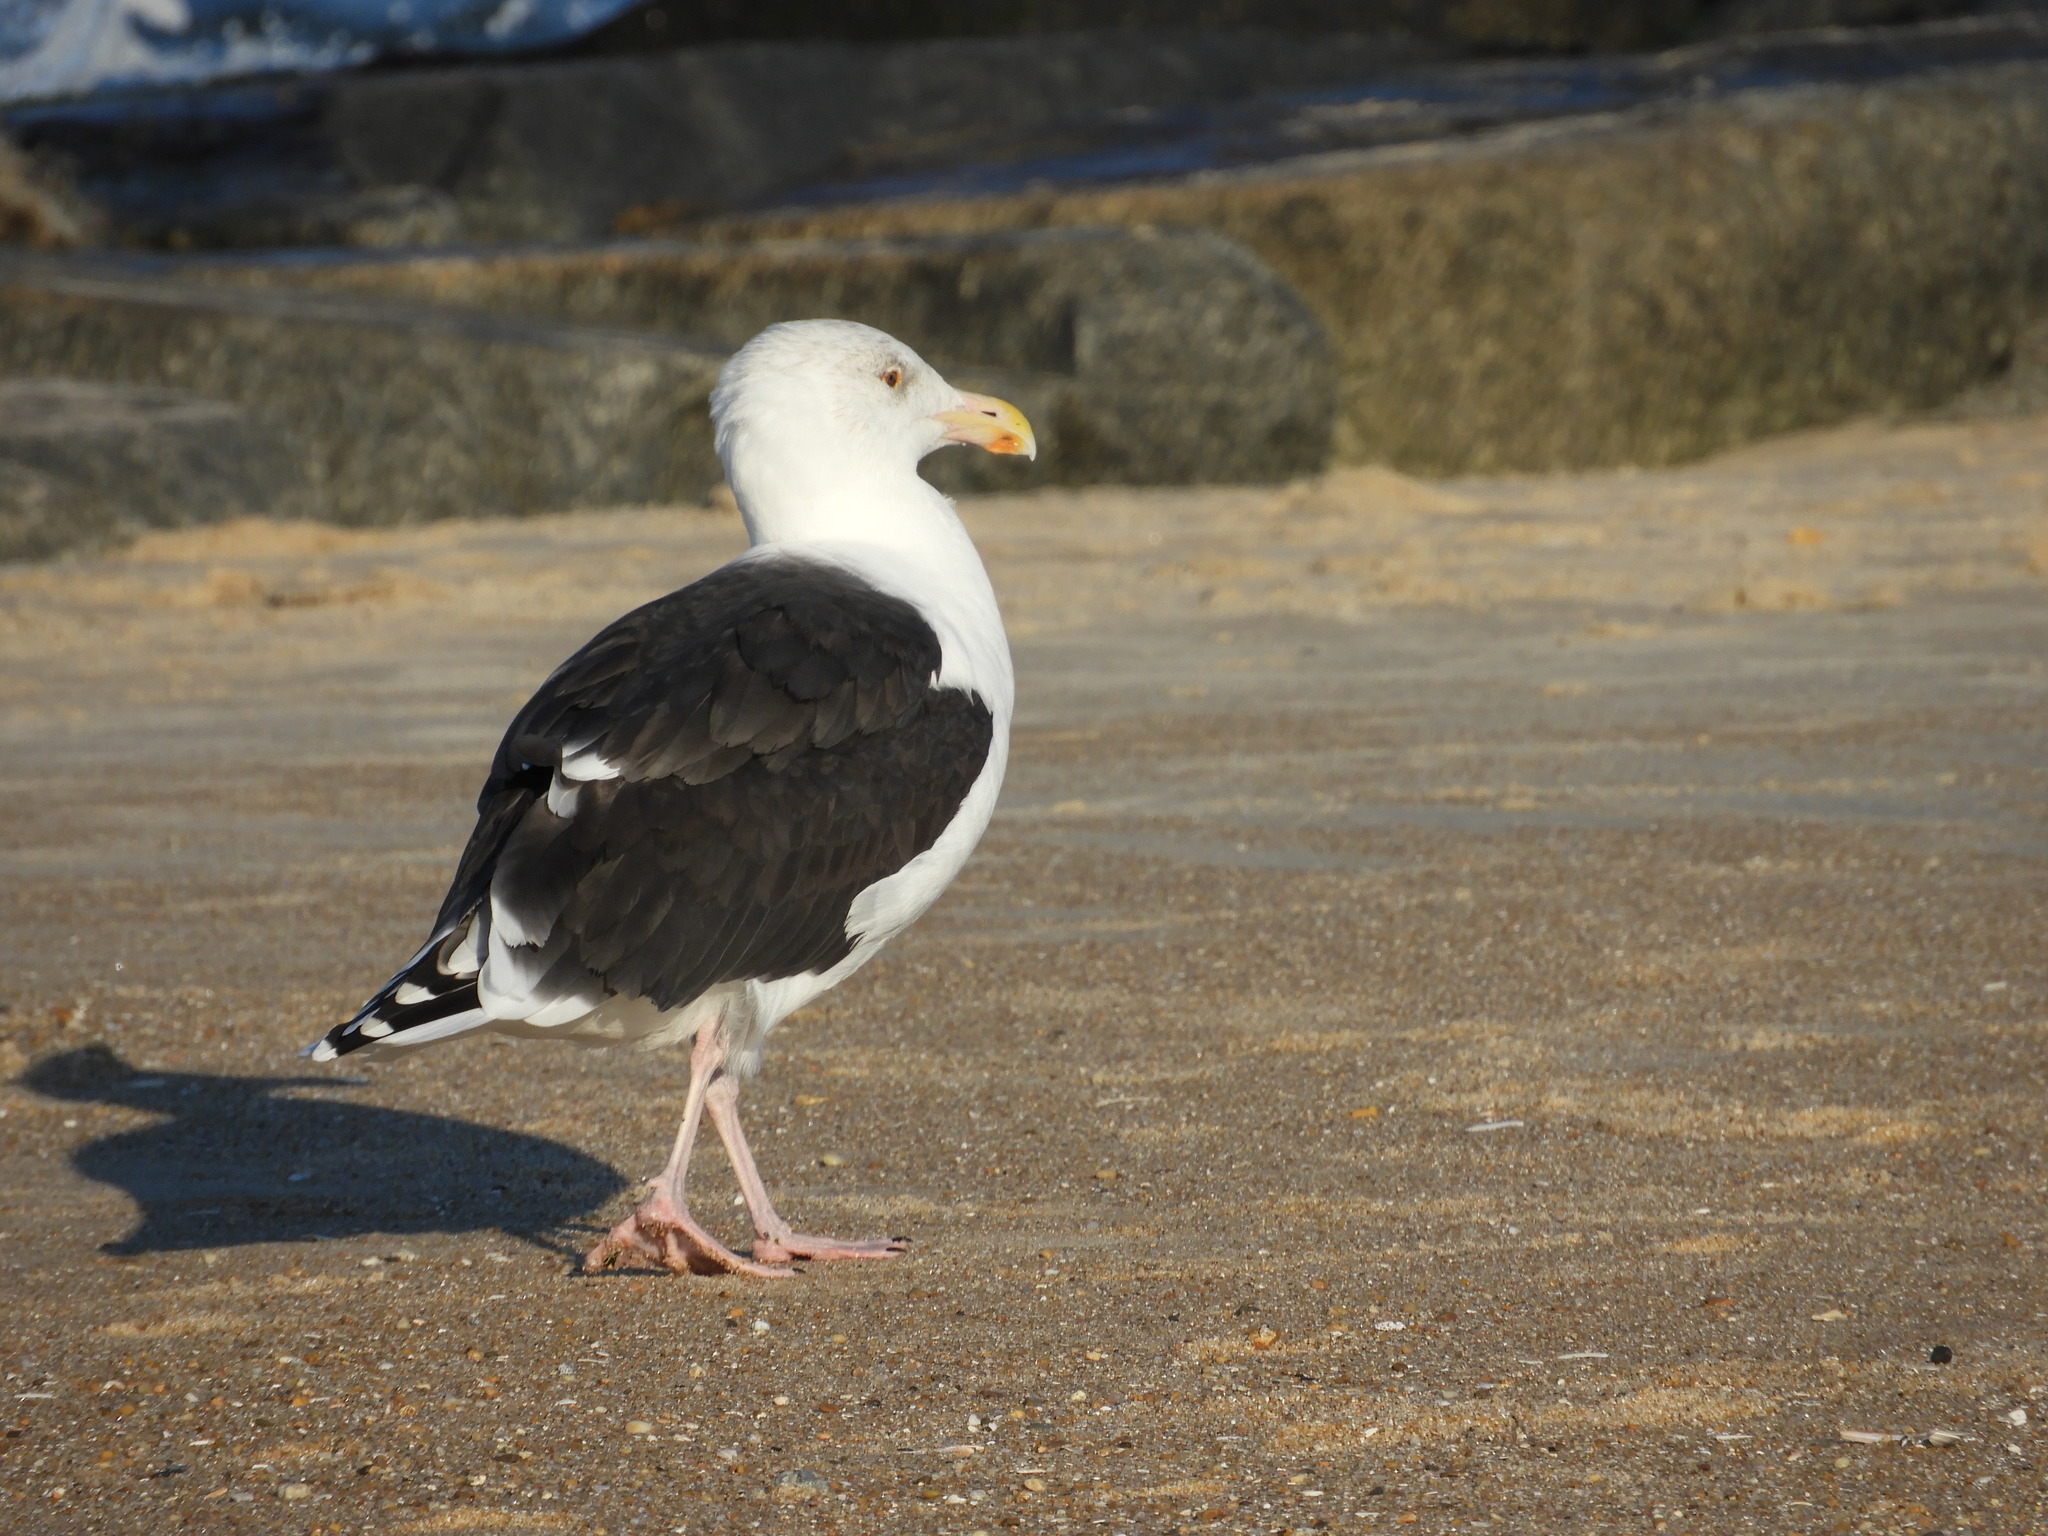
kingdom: Animalia
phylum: Chordata
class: Aves
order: Charadriiformes
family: Laridae
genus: Larus
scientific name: Larus marinus
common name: Great black-backed gull
